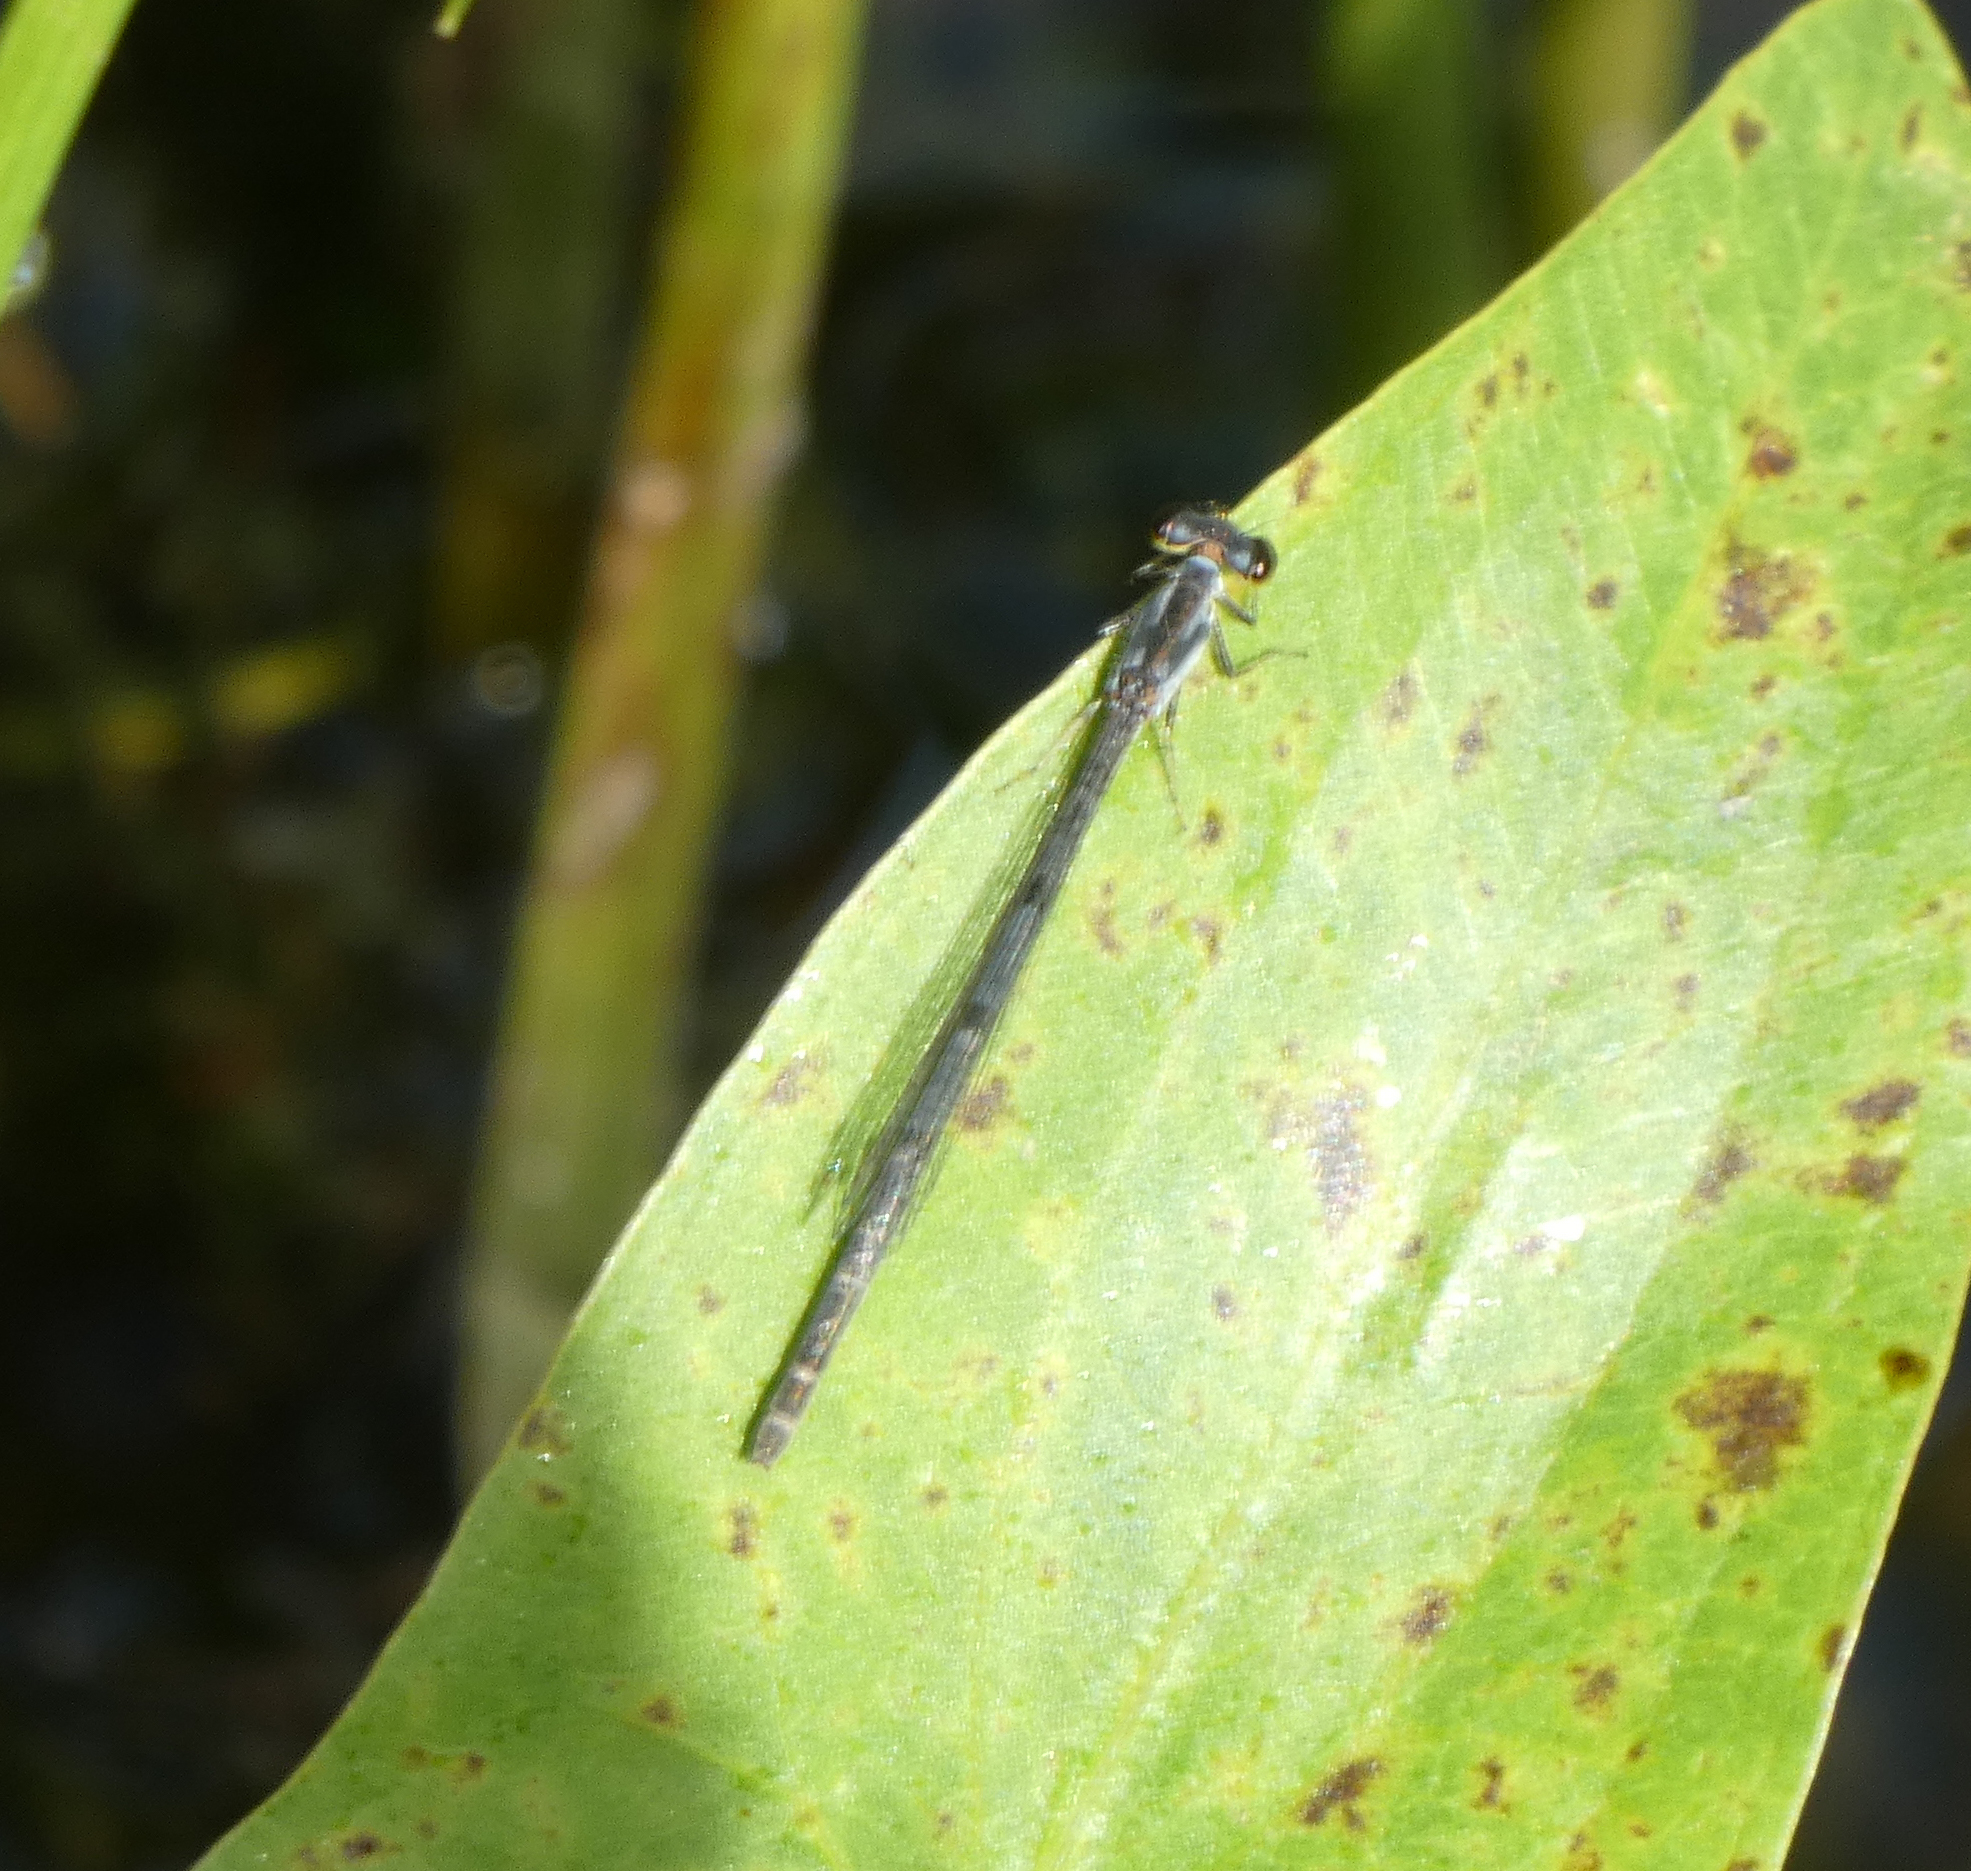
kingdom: Animalia
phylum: Arthropoda
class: Insecta
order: Odonata
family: Coenagrionidae
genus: Ischnura
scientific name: Ischnura posita
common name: Fragile forktail
